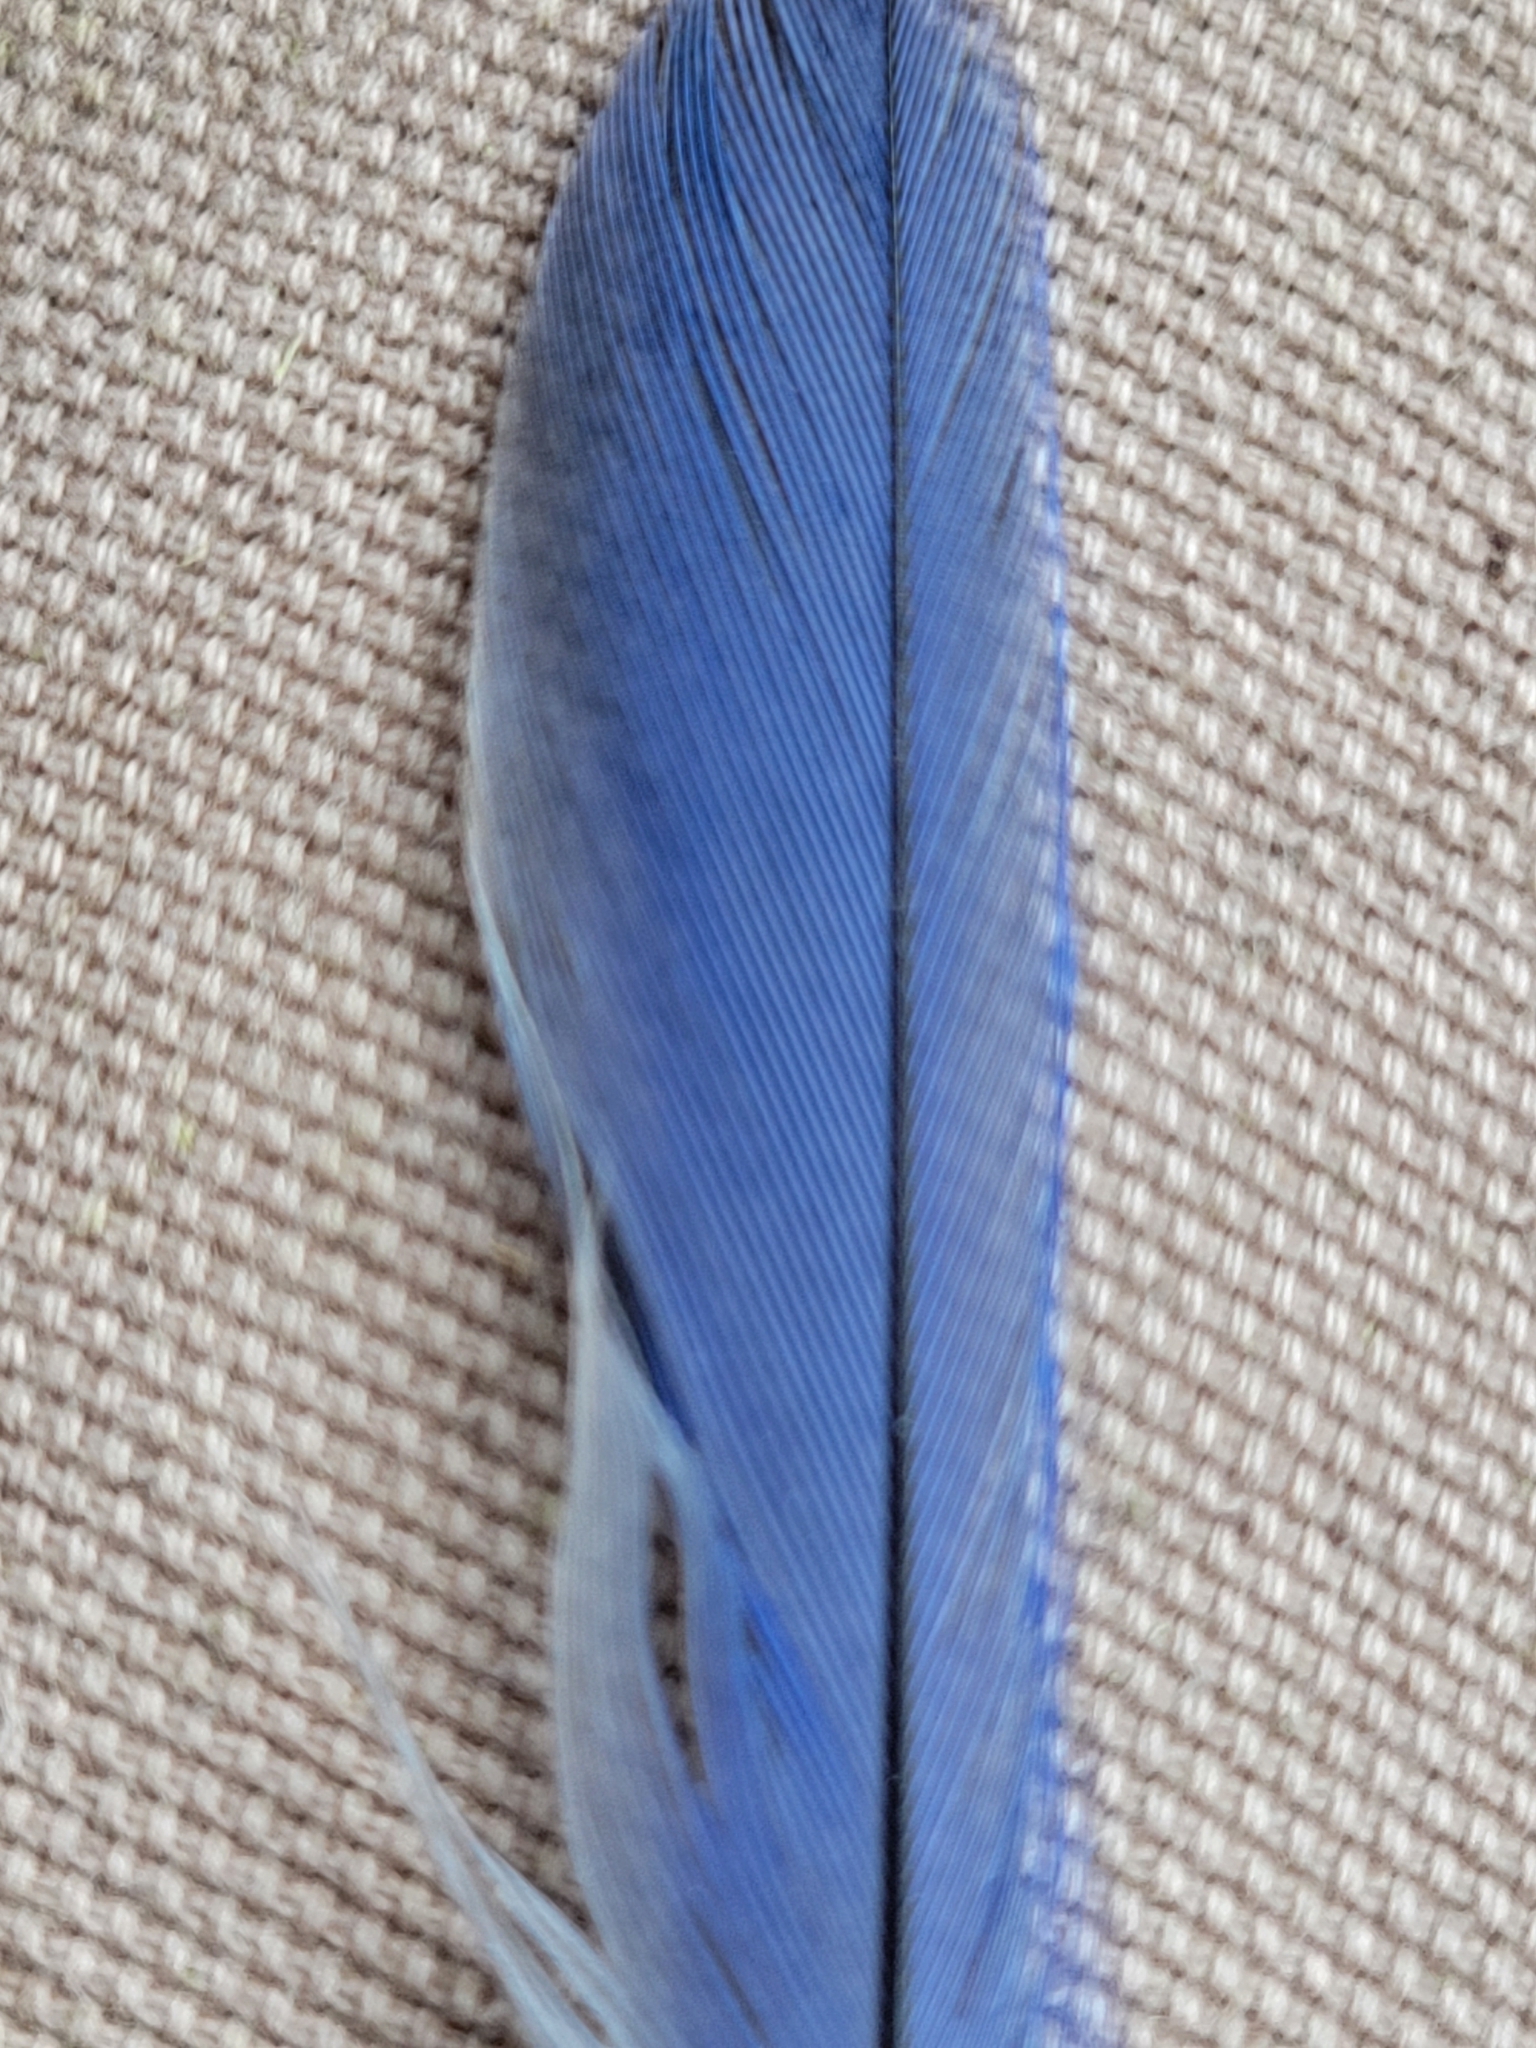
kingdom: Animalia
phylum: Chordata
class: Aves
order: Passeriformes
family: Turdidae
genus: Sialia
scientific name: Sialia sialis
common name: Eastern bluebird
